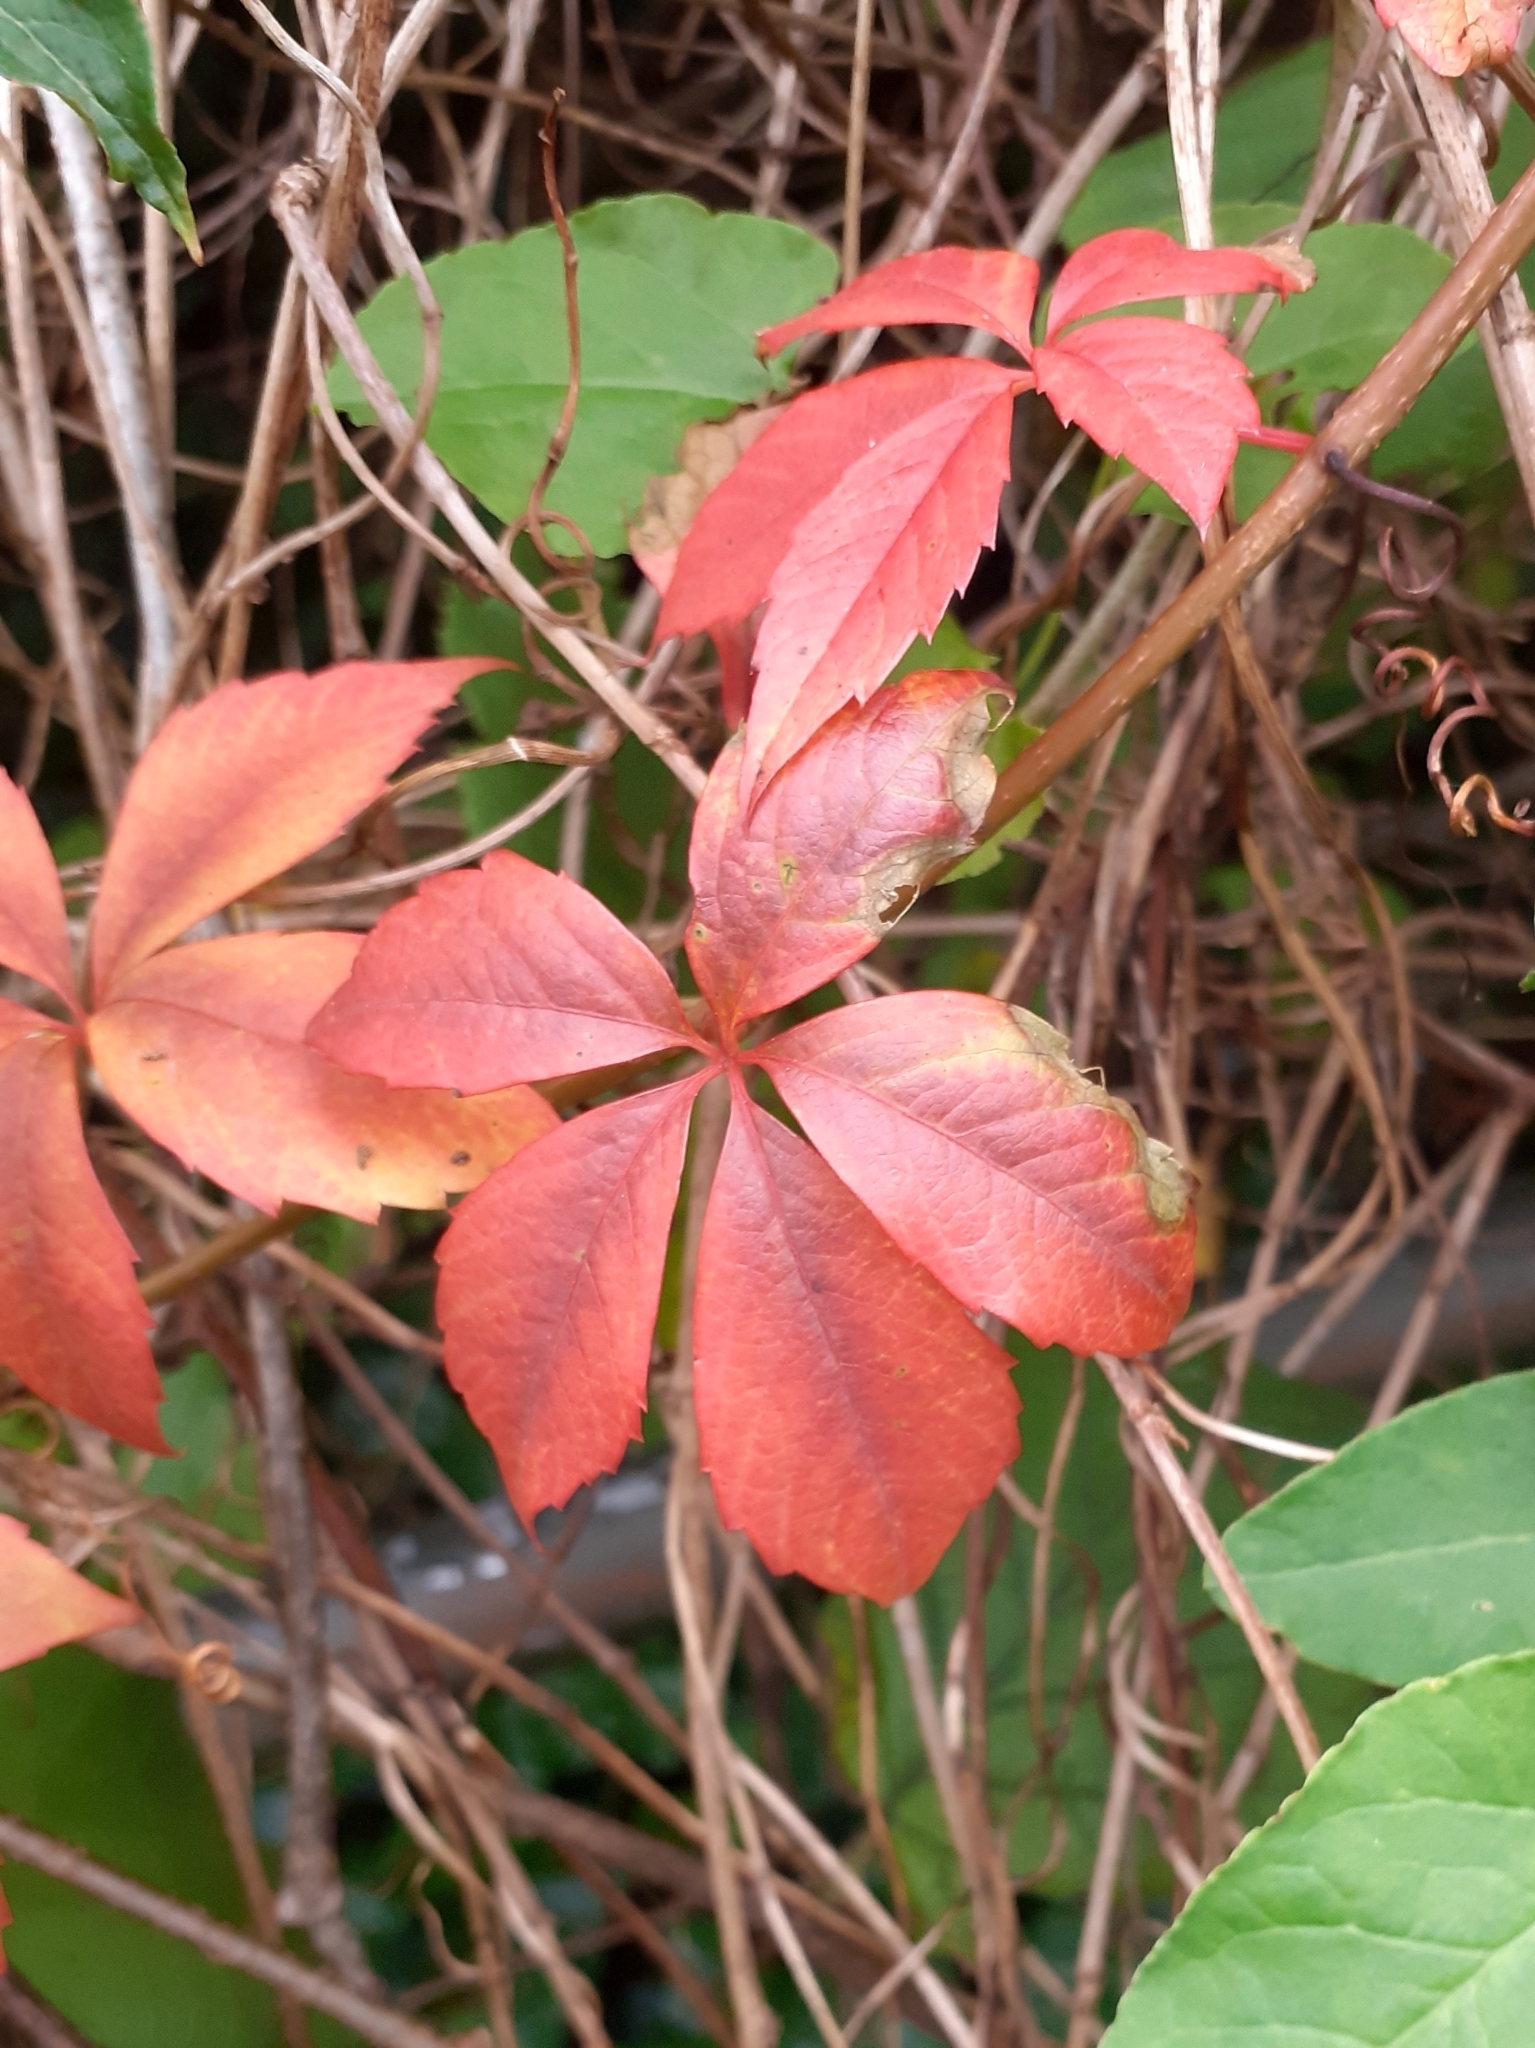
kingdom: Plantae
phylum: Tracheophyta
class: Magnoliopsida
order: Vitales
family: Vitaceae
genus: Parthenocissus
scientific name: Parthenocissus quinquefolia
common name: Virginia-creeper
